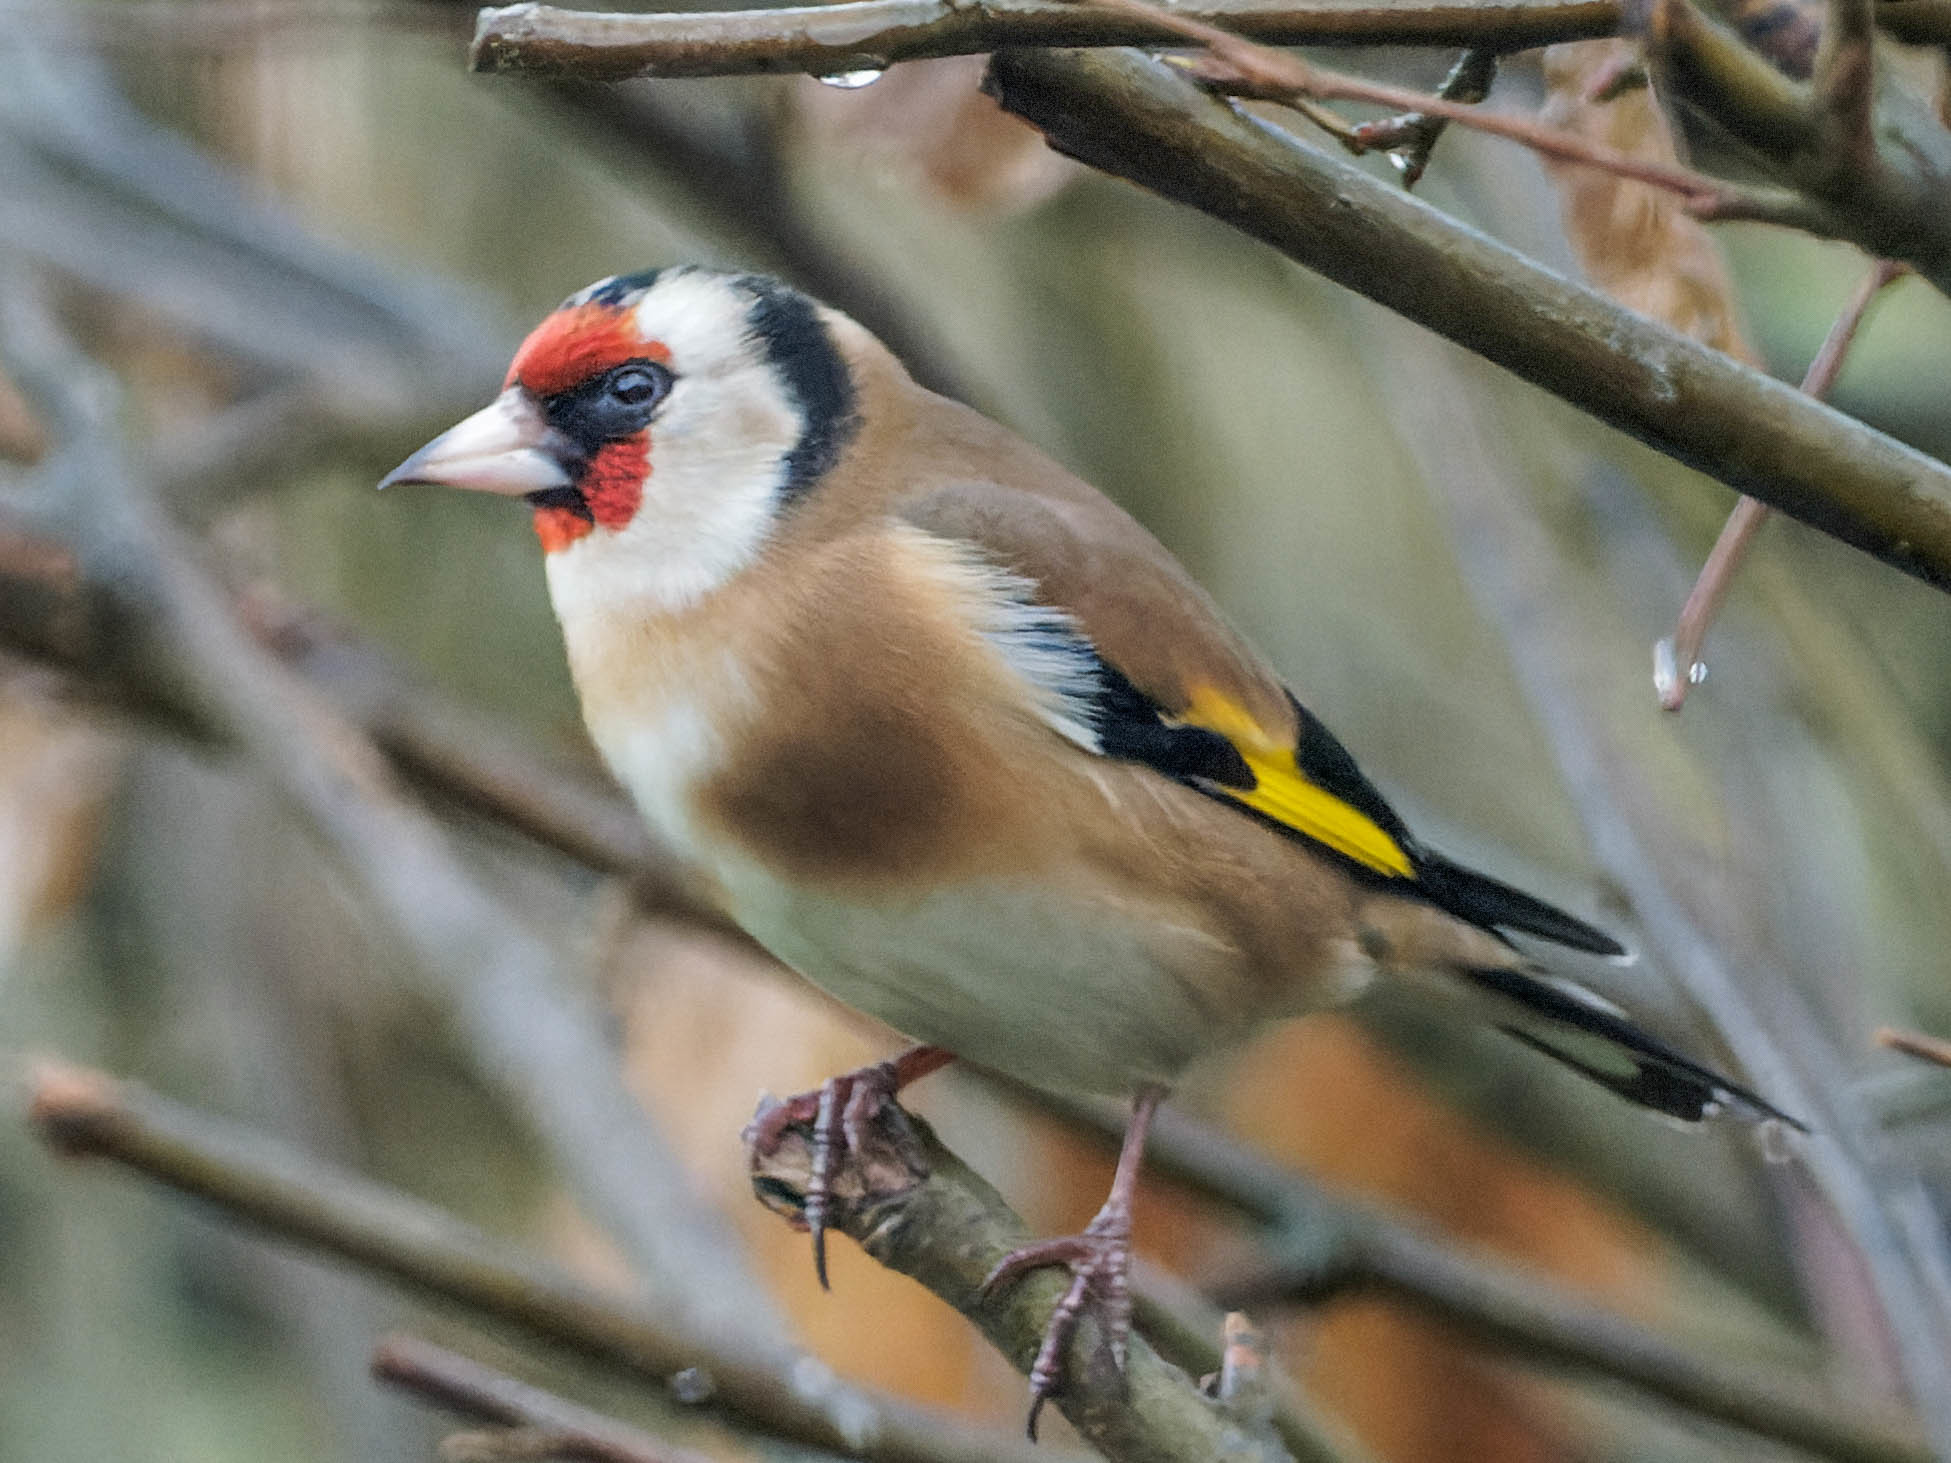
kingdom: Animalia
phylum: Chordata
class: Aves
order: Passeriformes
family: Fringillidae
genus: Carduelis
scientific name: Carduelis carduelis
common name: European goldfinch
